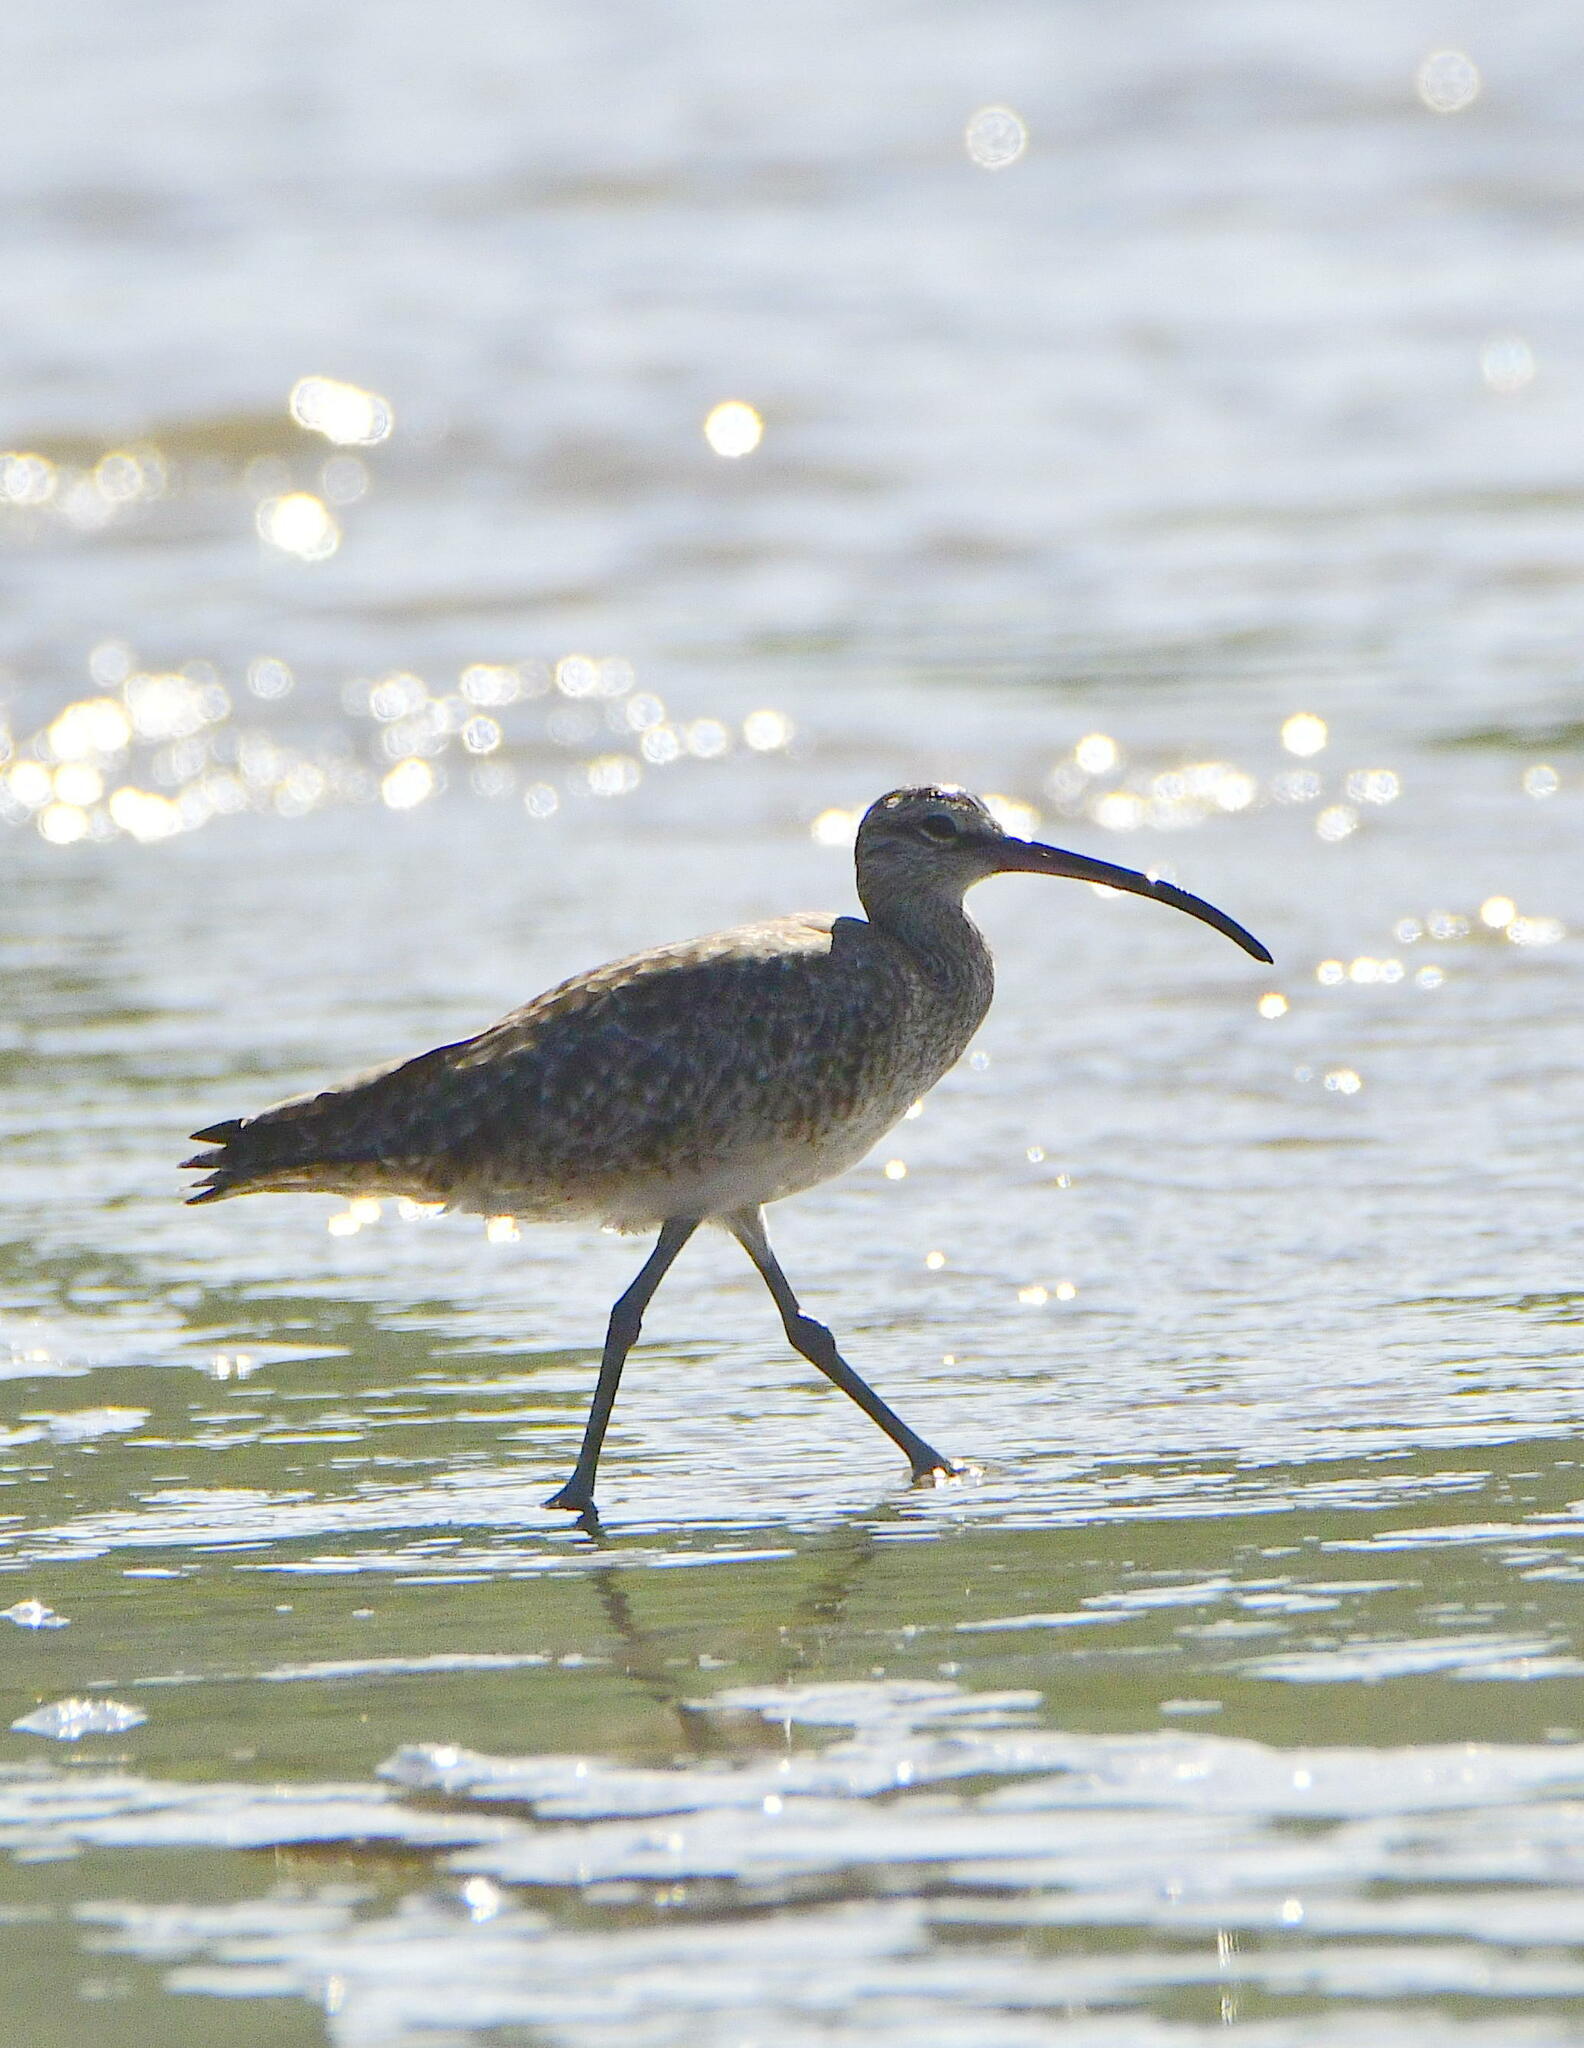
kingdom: Animalia
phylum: Chordata
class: Aves
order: Charadriiformes
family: Scolopacidae
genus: Numenius
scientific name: Numenius phaeopus
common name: Whimbrel
